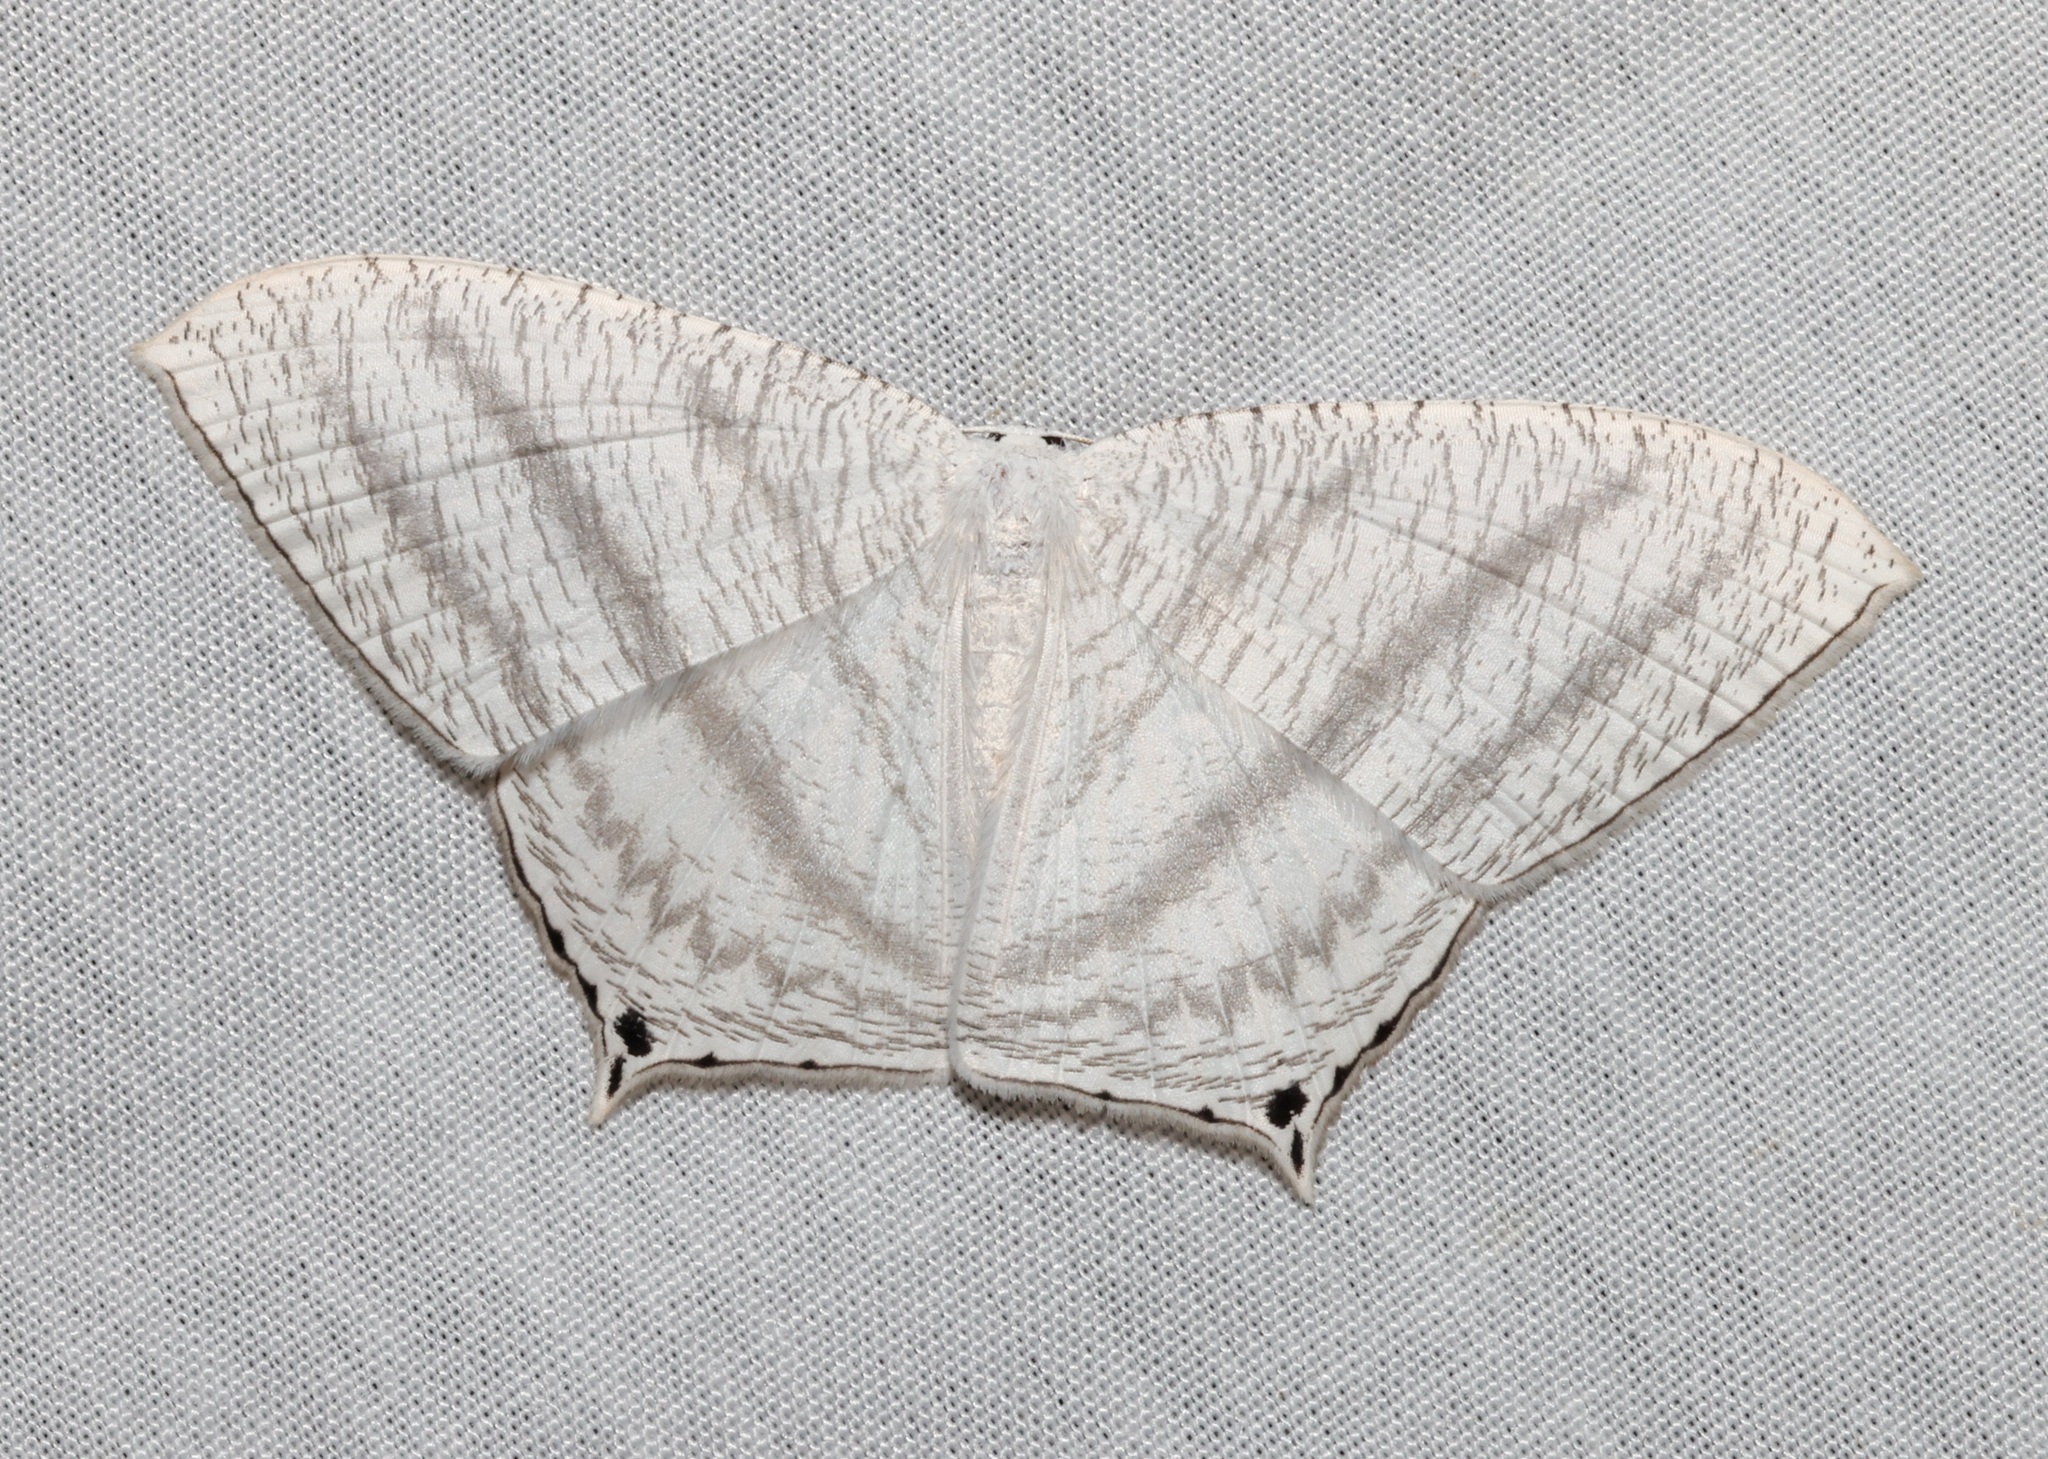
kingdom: Animalia
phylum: Arthropoda
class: Insecta
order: Lepidoptera
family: Uraniidae
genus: Micronia
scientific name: Micronia aculeata
